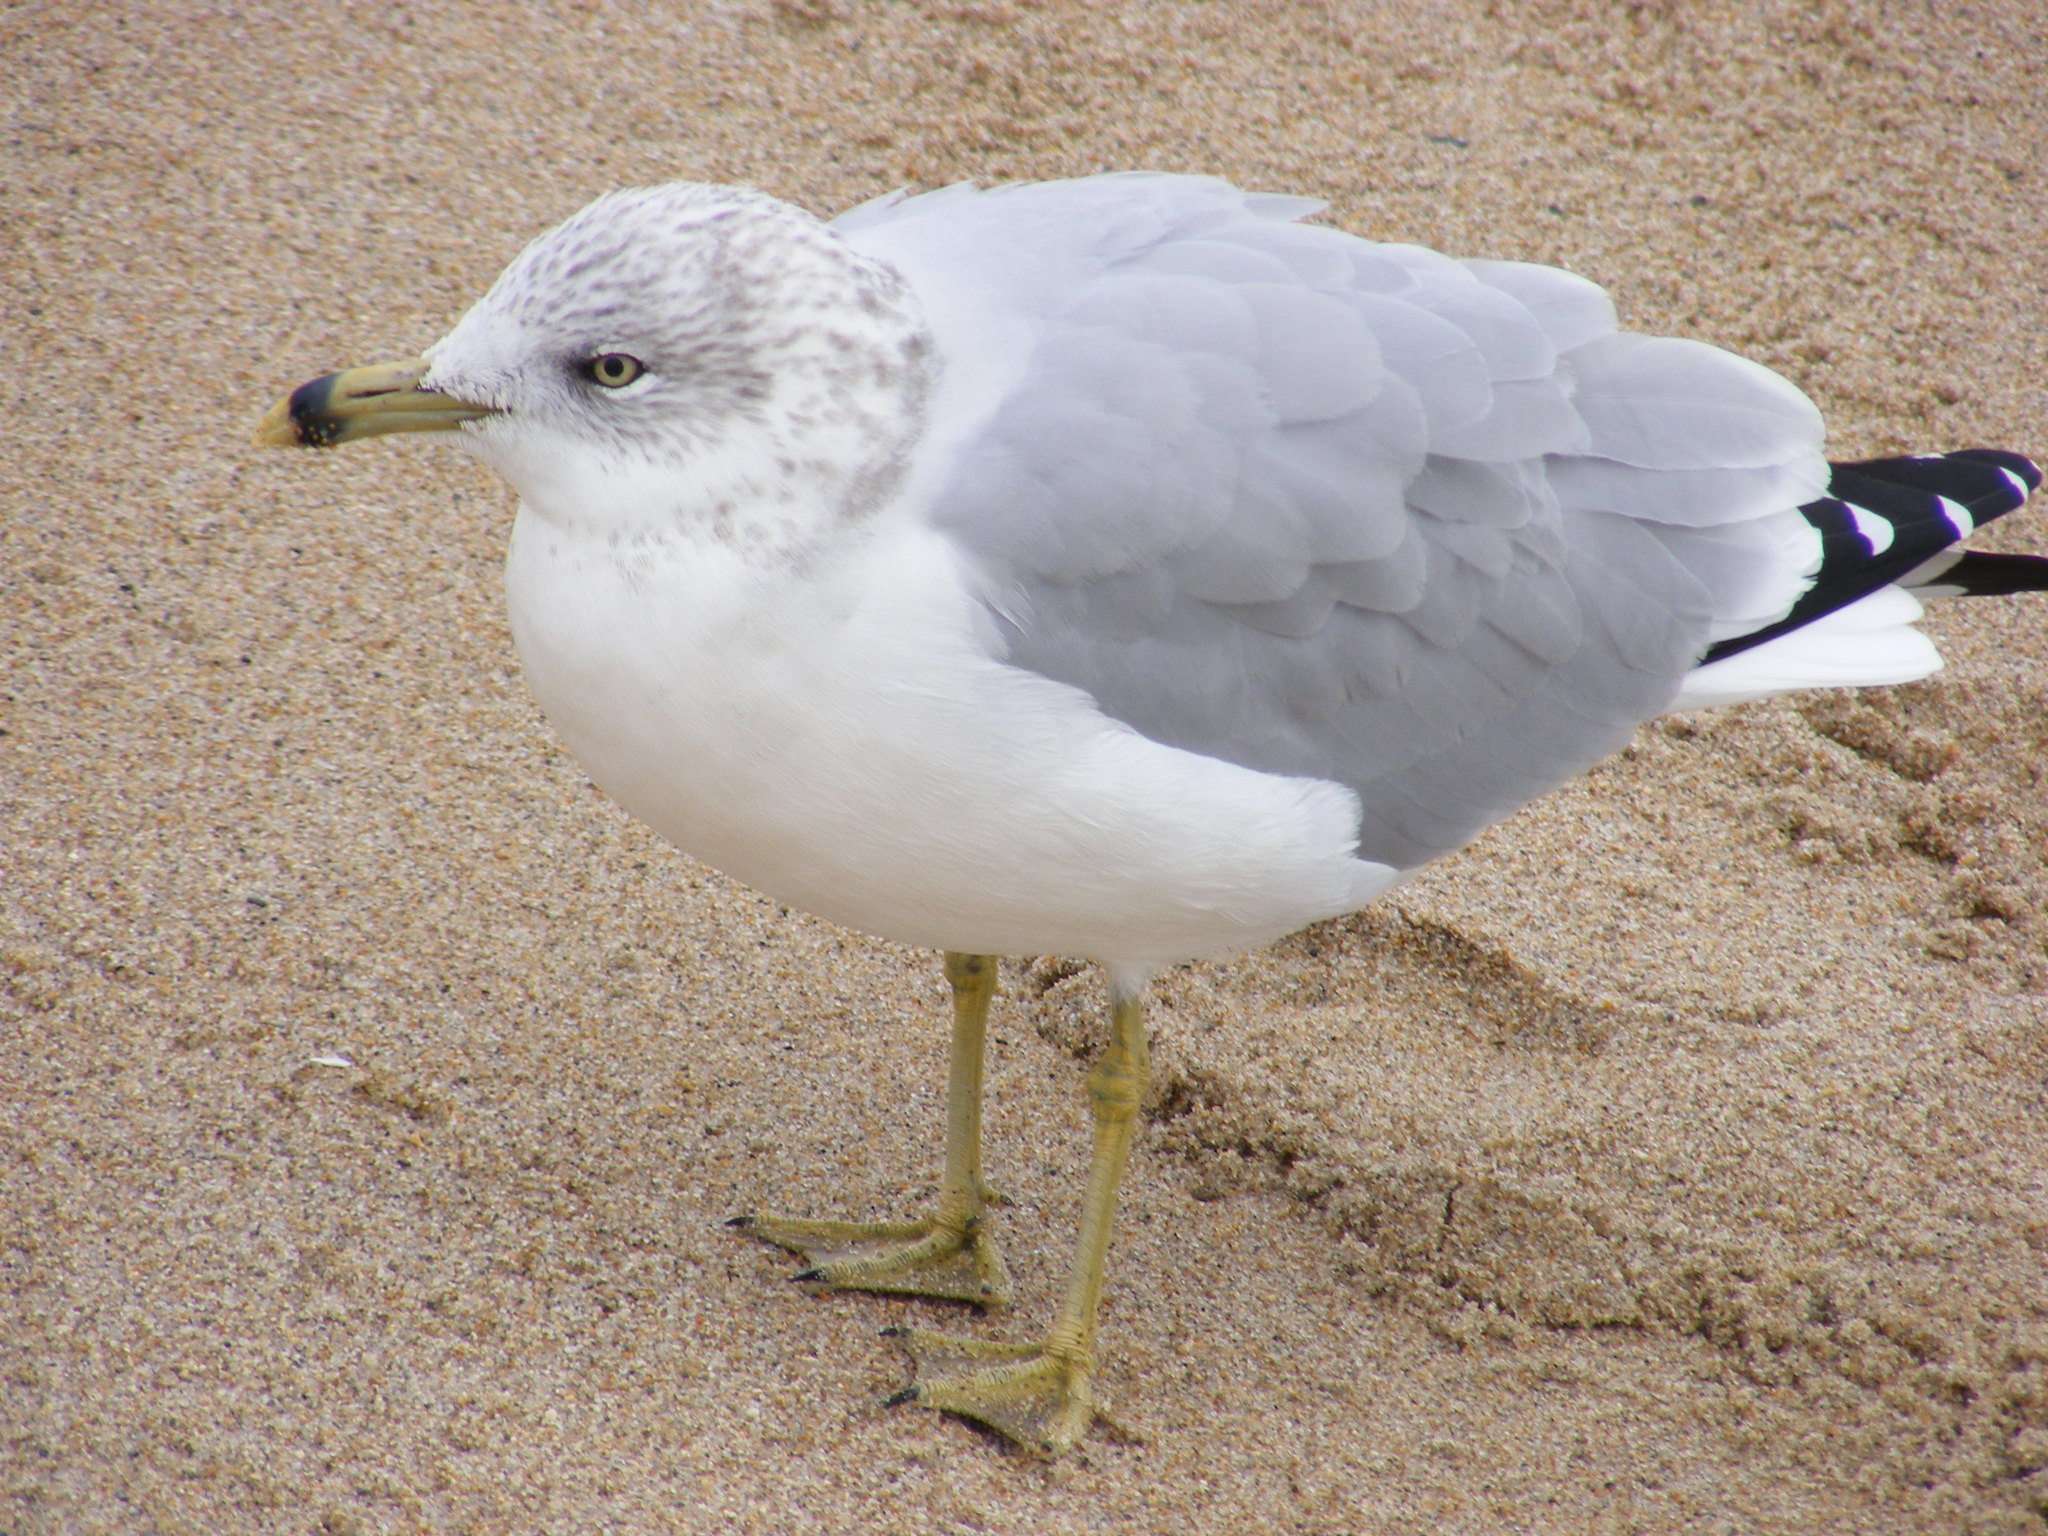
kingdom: Animalia
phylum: Chordata
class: Aves
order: Charadriiformes
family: Laridae
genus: Larus
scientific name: Larus delawarensis
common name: Ring-billed gull
